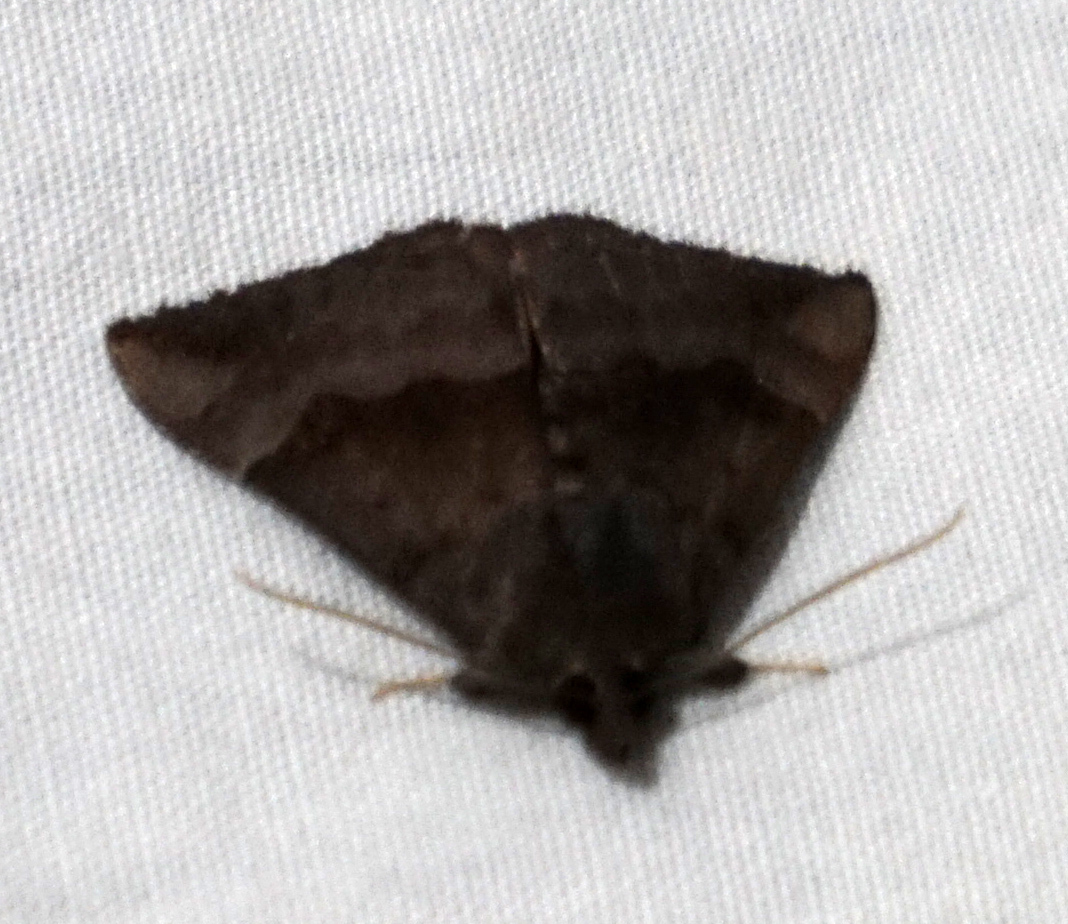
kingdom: Animalia
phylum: Arthropoda
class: Insecta
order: Lepidoptera
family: Erebidae
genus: Hypena
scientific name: Hypena madefactalis
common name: Gray-edged snout
